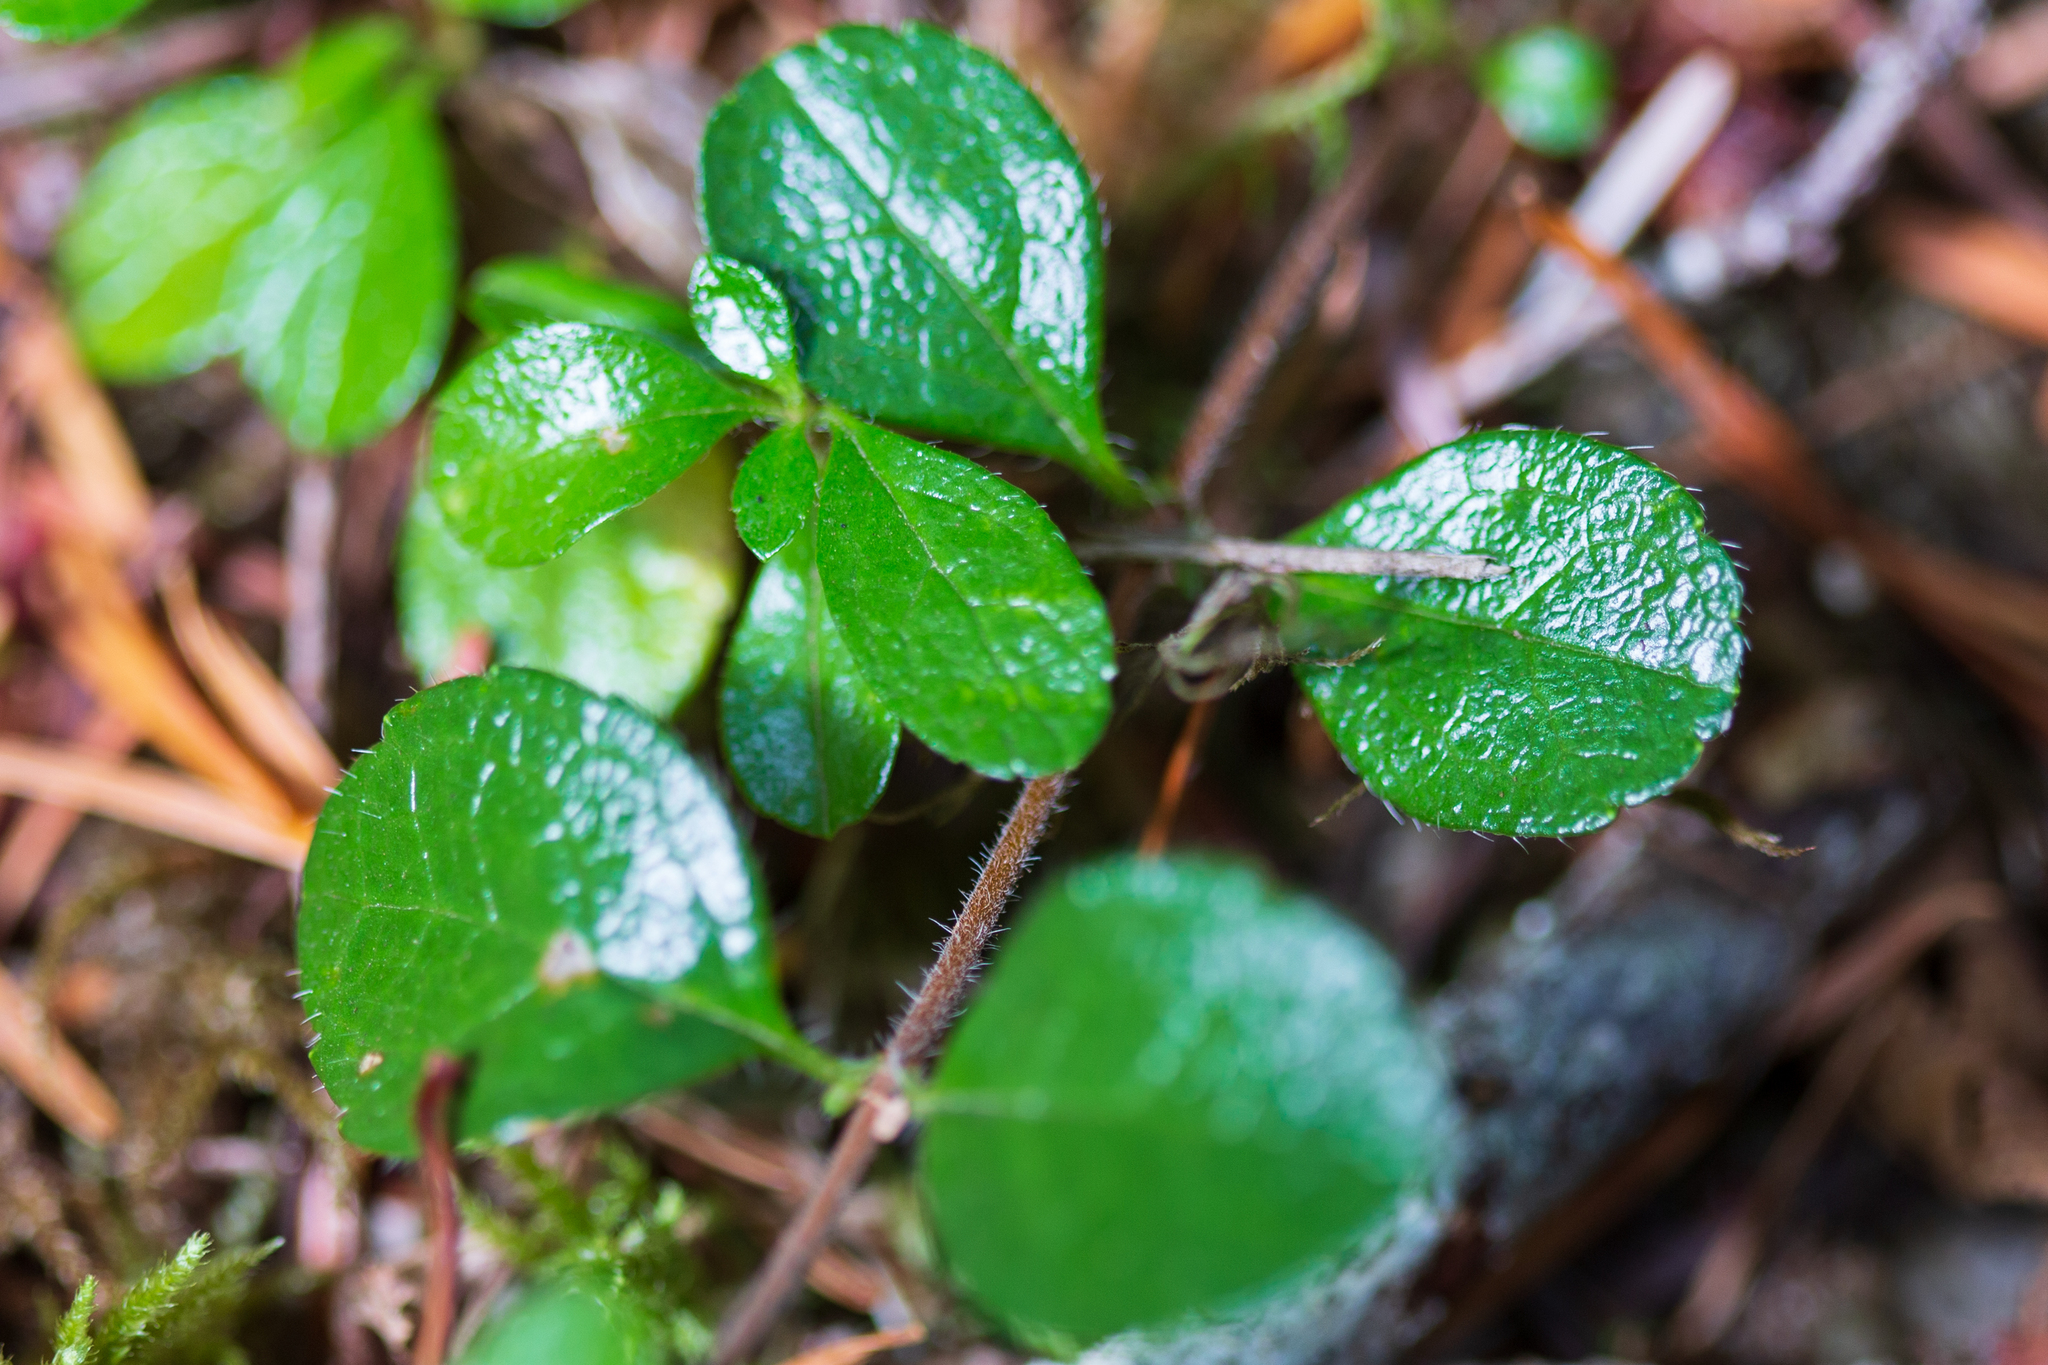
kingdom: Plantae
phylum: Tracheophyta
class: Magnoliopsida
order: Dipsacales
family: Caprifoliaceae
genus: Linnaea
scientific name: Linnaea borealis
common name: Twinflower
